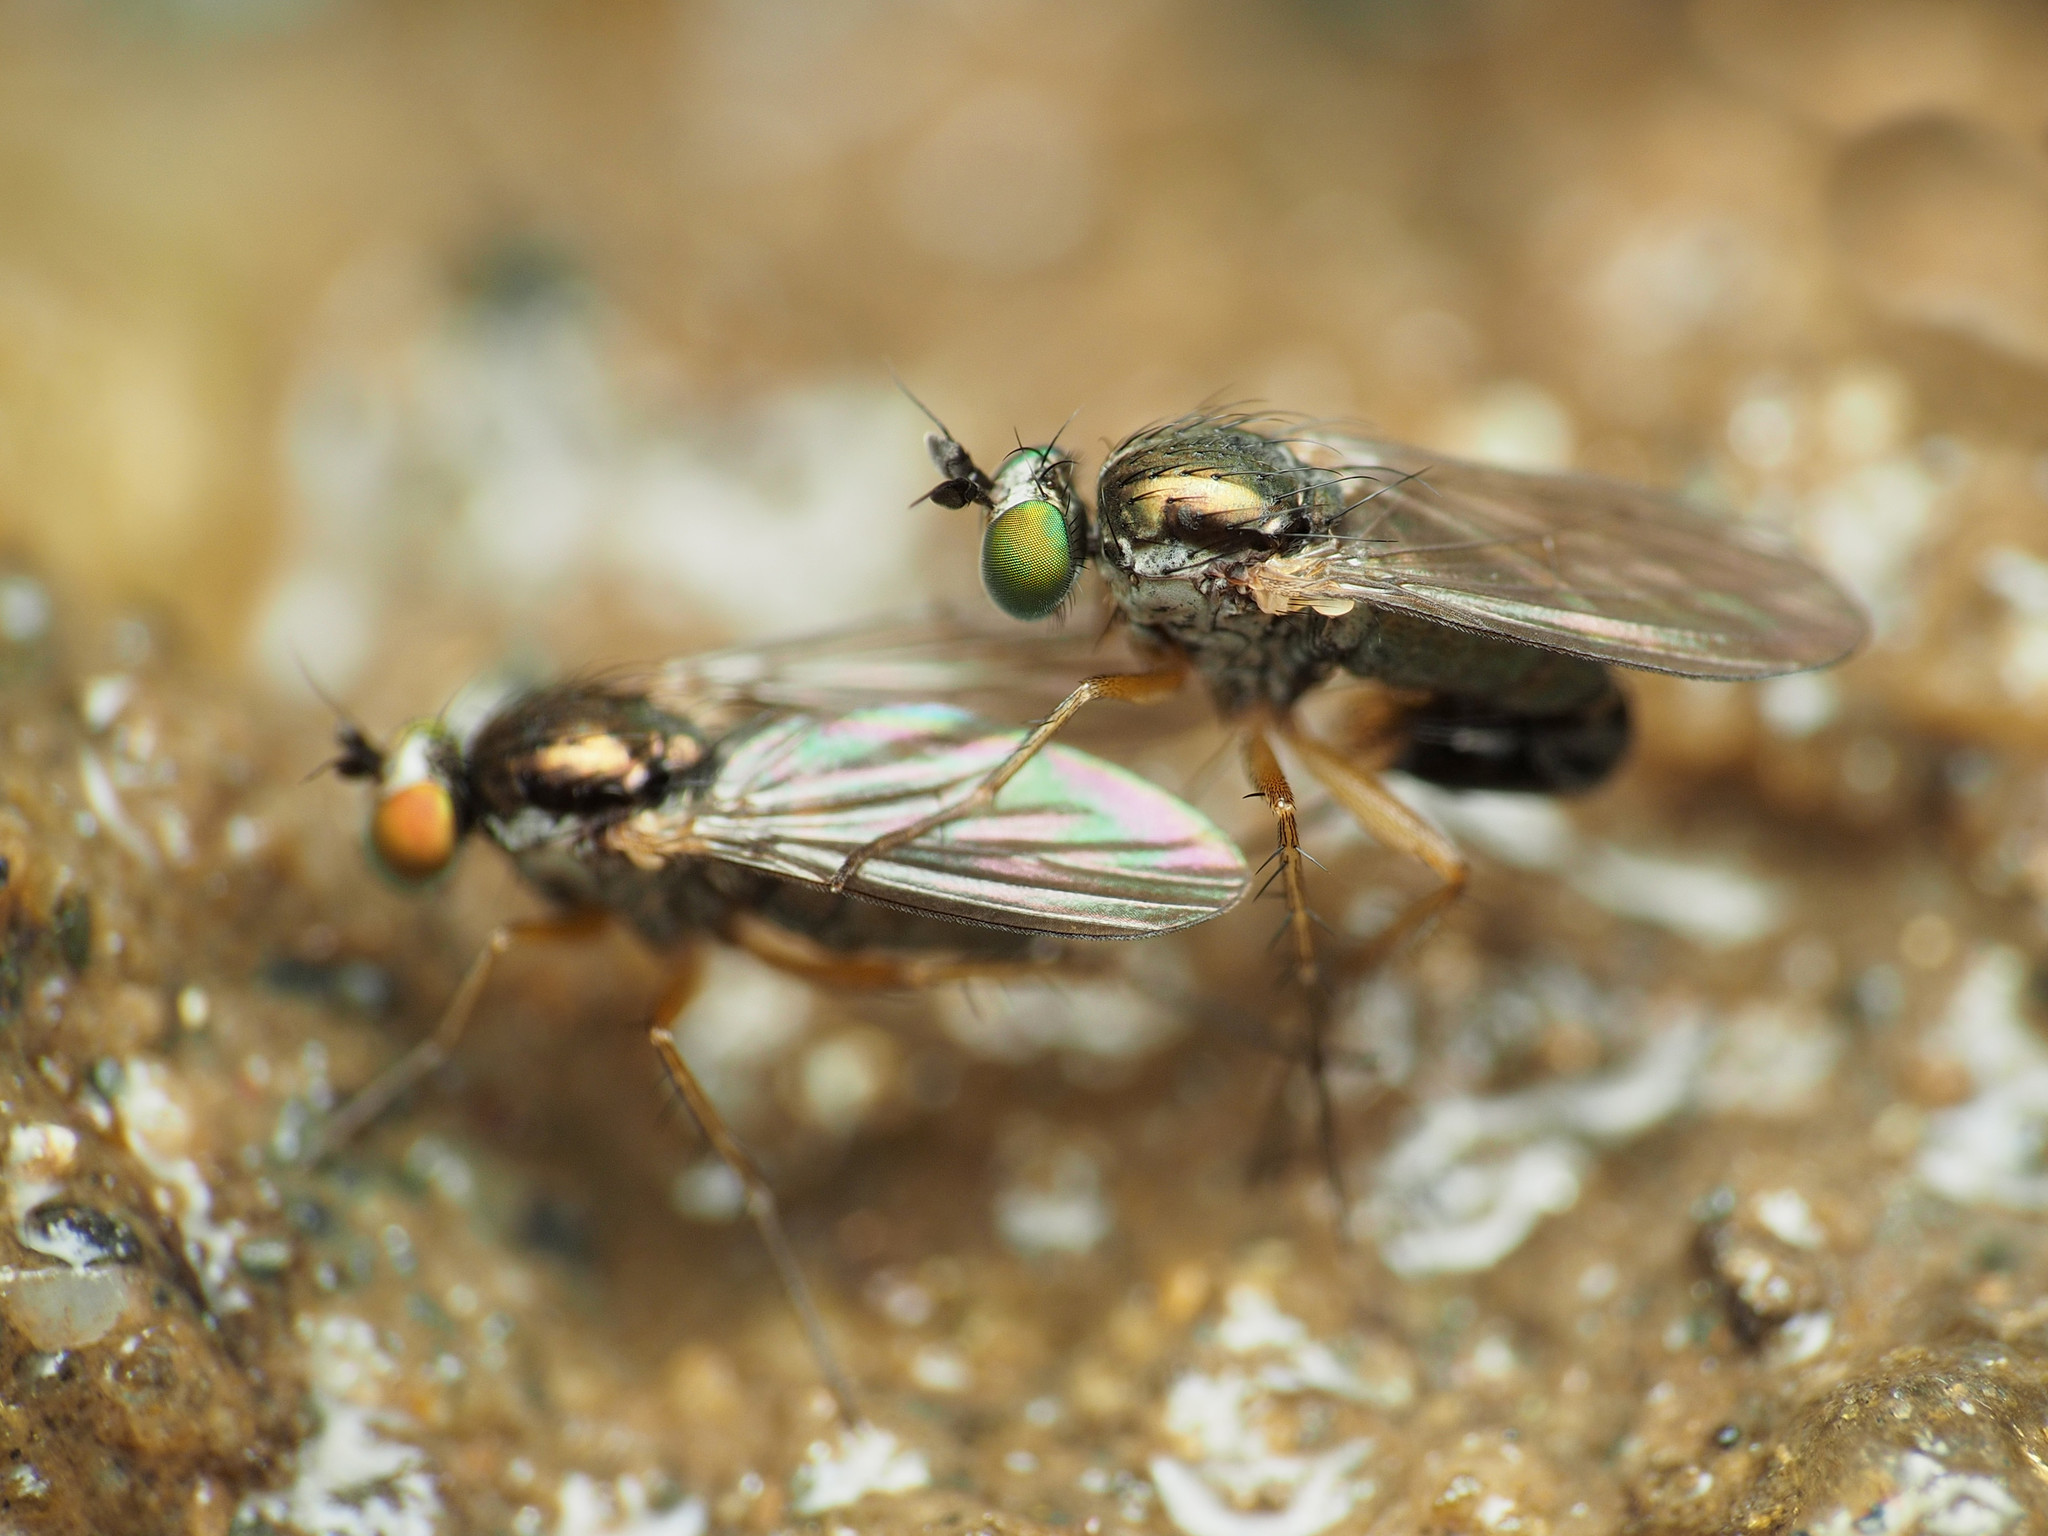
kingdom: Animalia
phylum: Arthropoda
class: Insecta
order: Diptera
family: Dolichopodidae
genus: Gymnopternus
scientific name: Gymnopternus meniscus
